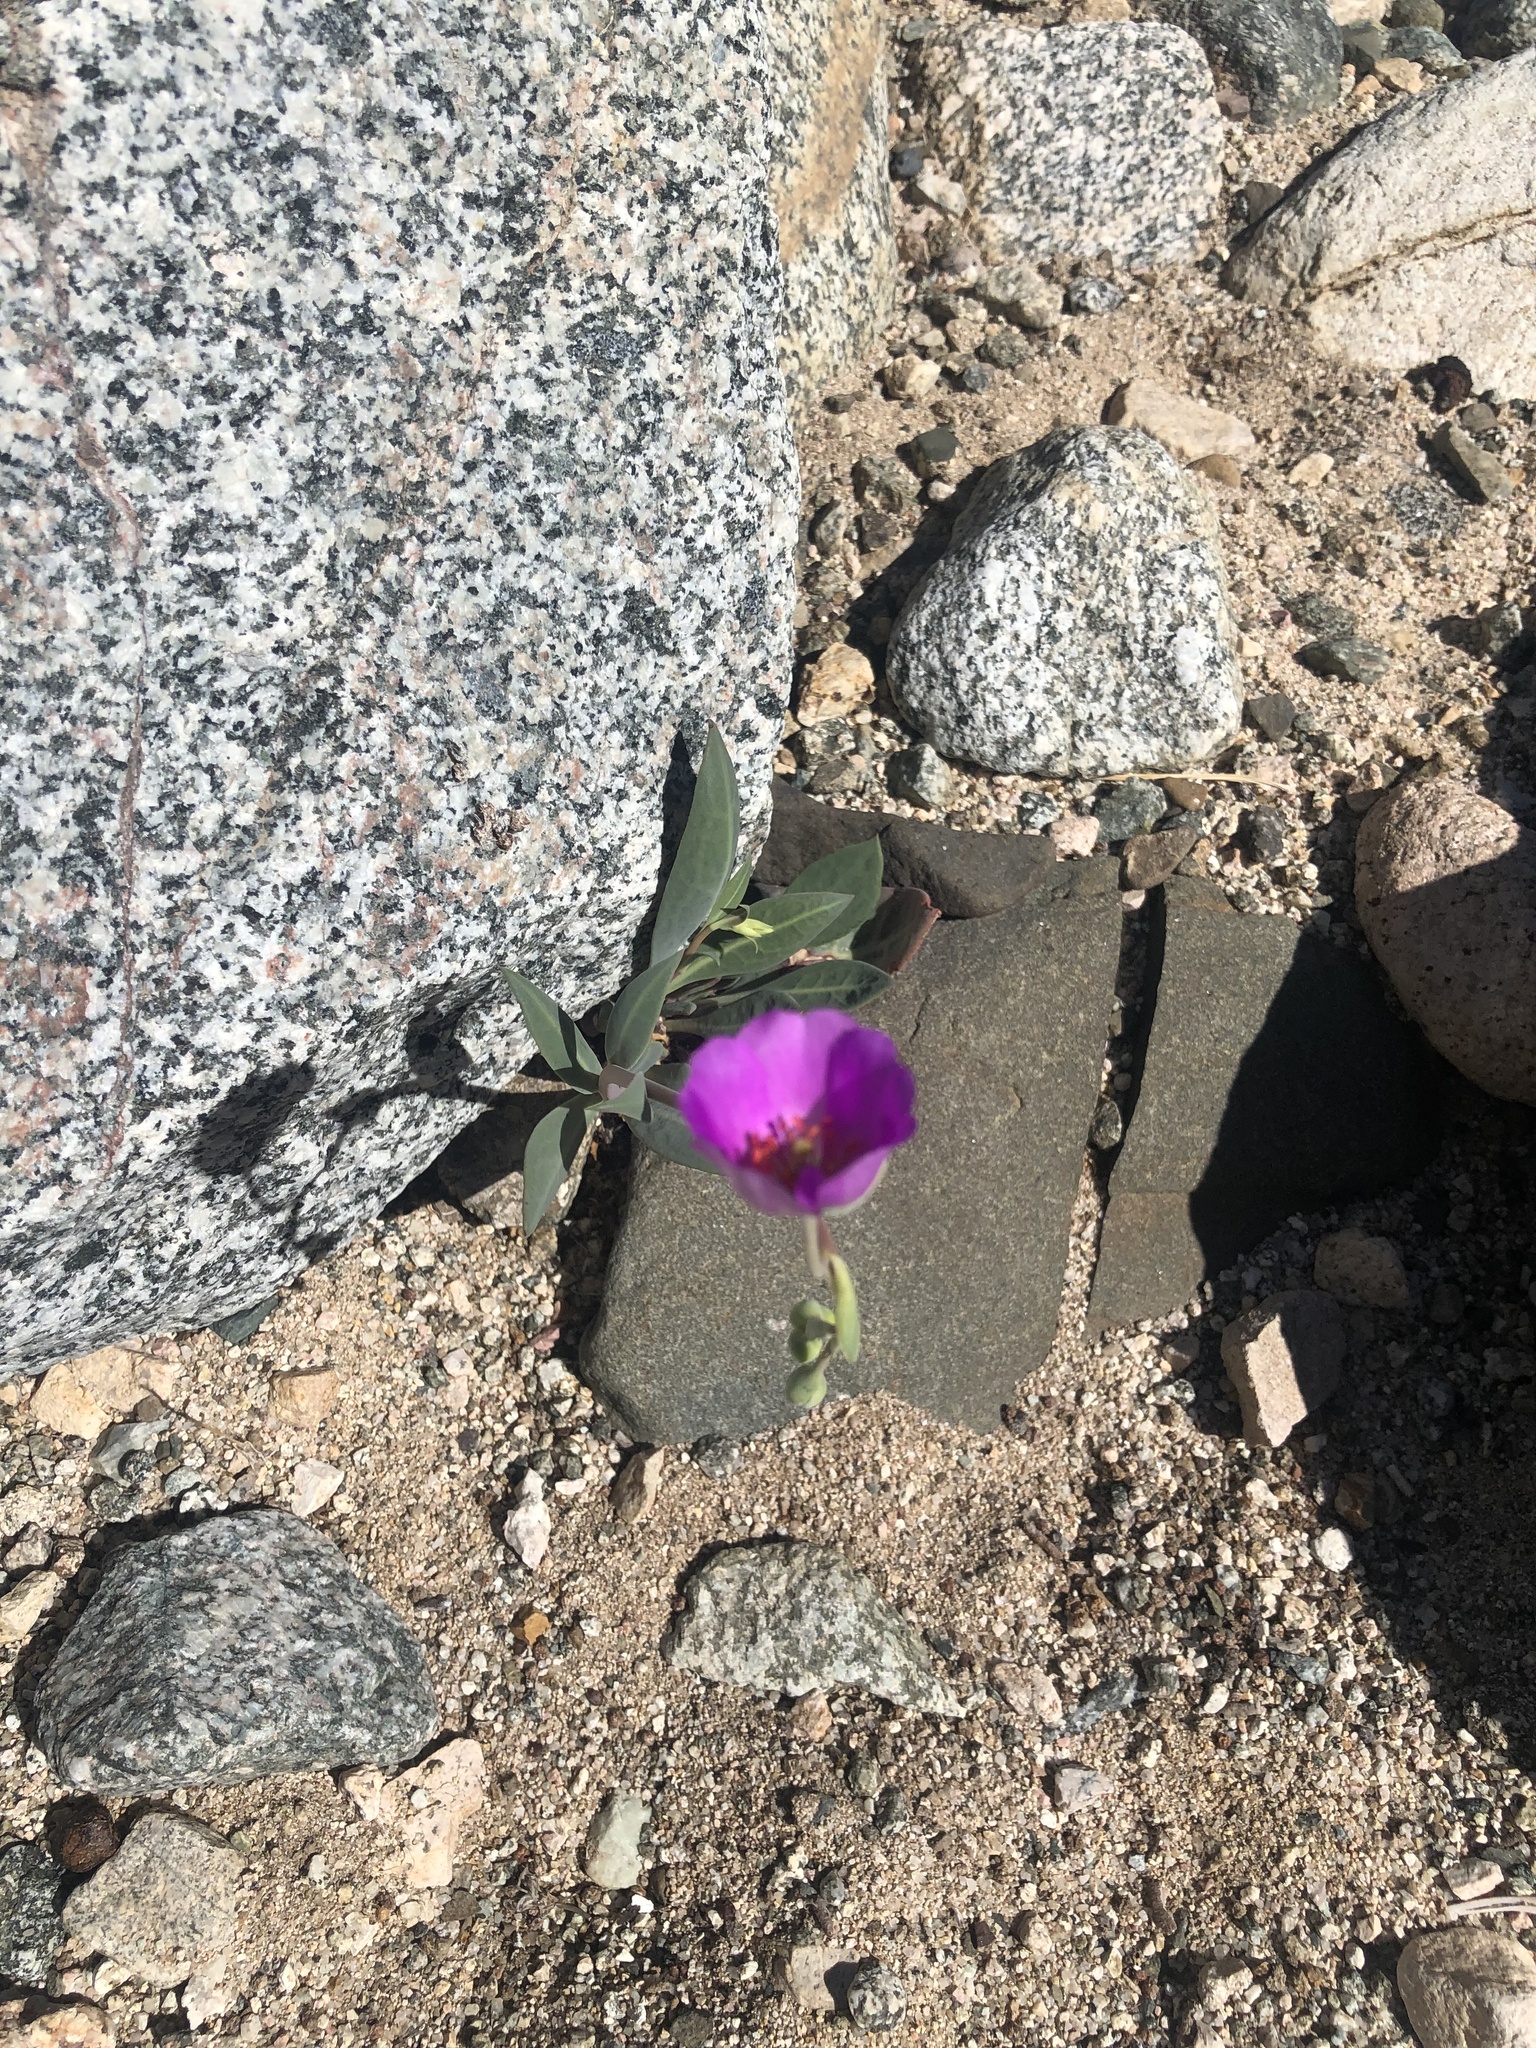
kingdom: Plantae
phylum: Tracheophyta
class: Magnoliopsida
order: Caryophyllales
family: Montiaceae
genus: Cistanthe
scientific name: Cistanthe grandiflora
